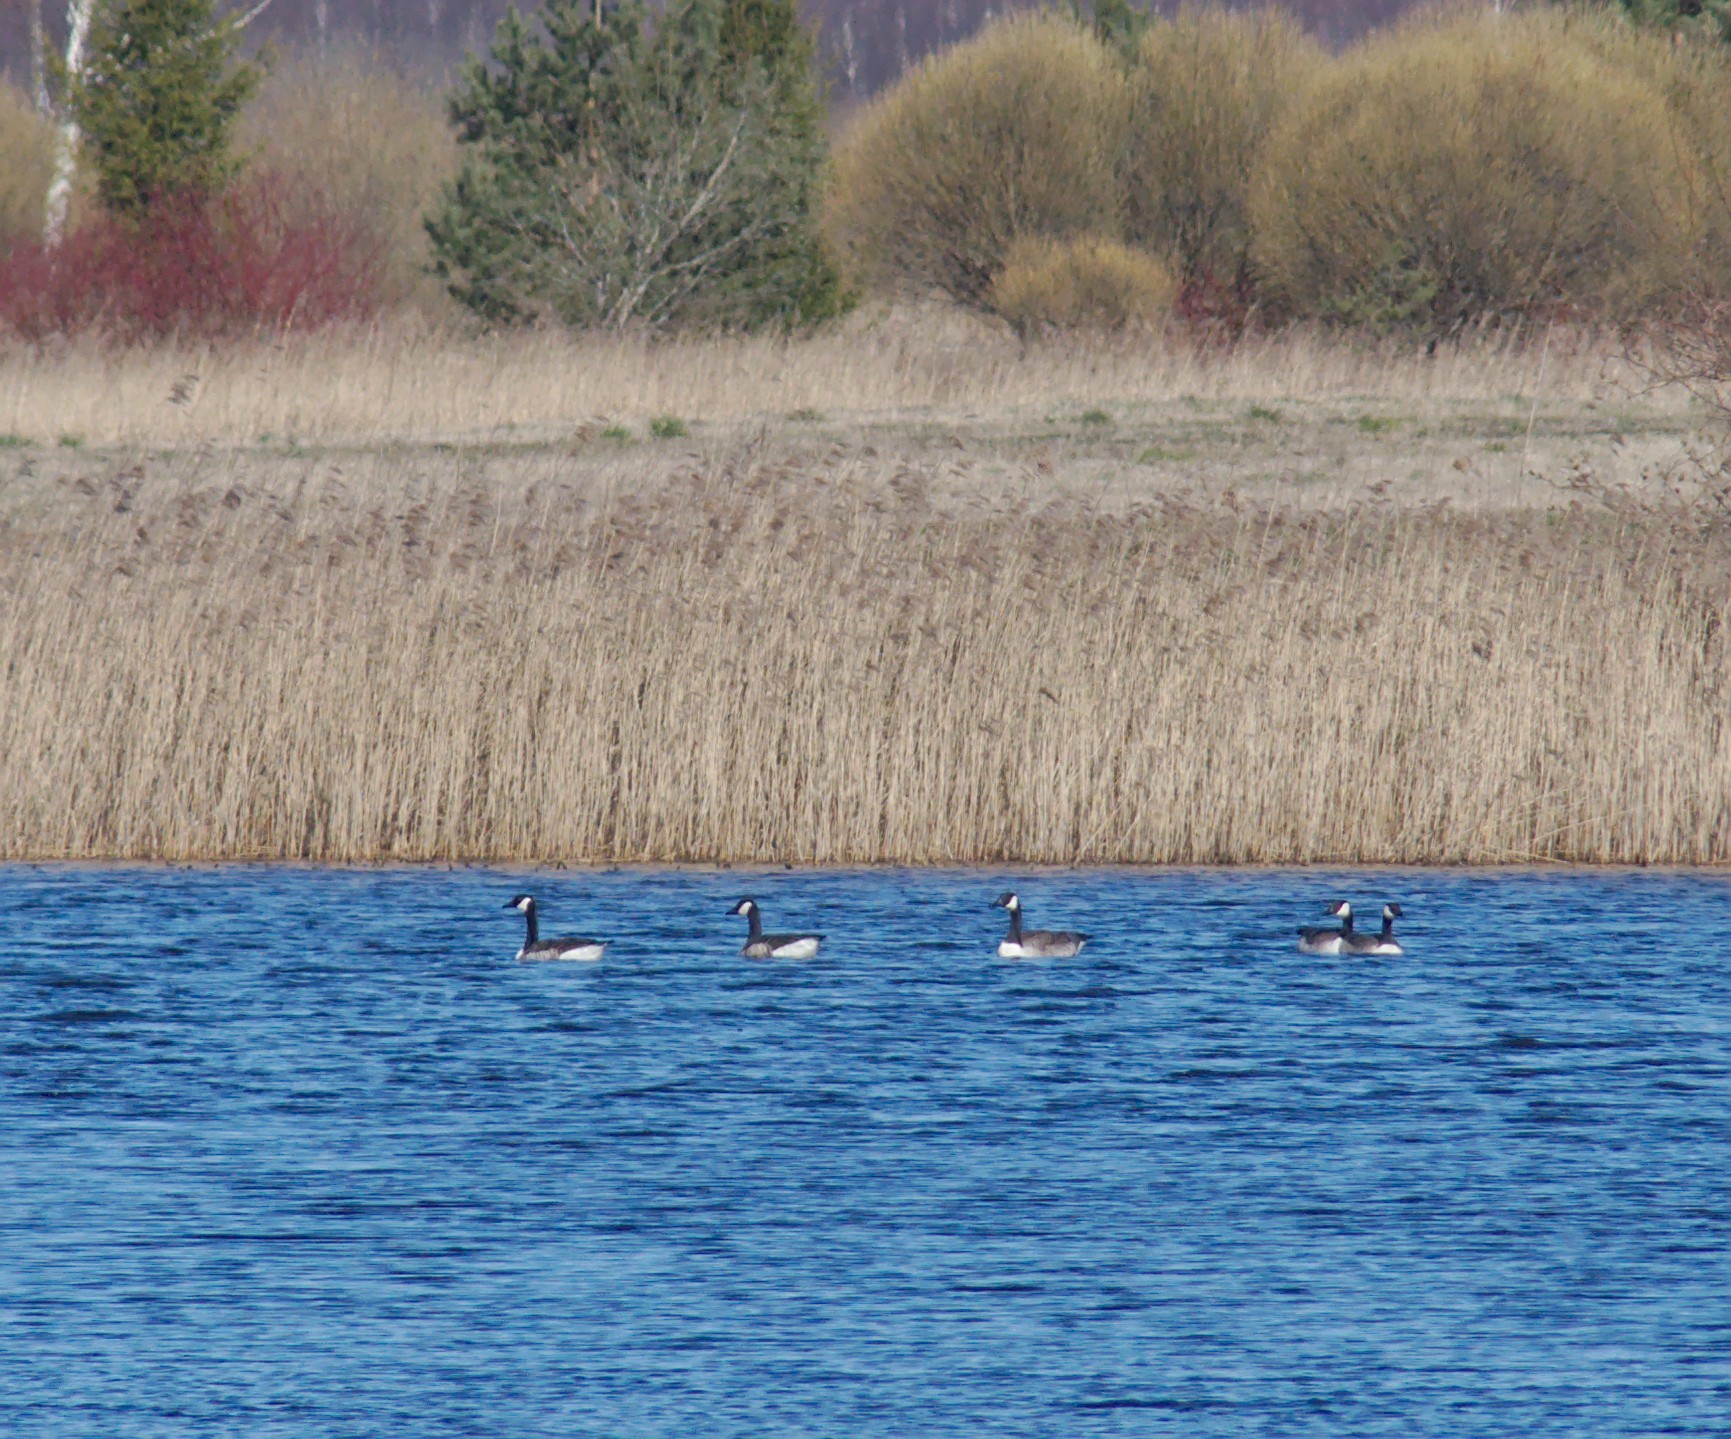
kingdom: Animalia
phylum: Chordata
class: Aves
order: Anseriformes
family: Anatidae
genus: Branta
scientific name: Branta canadensis
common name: Canada goose
